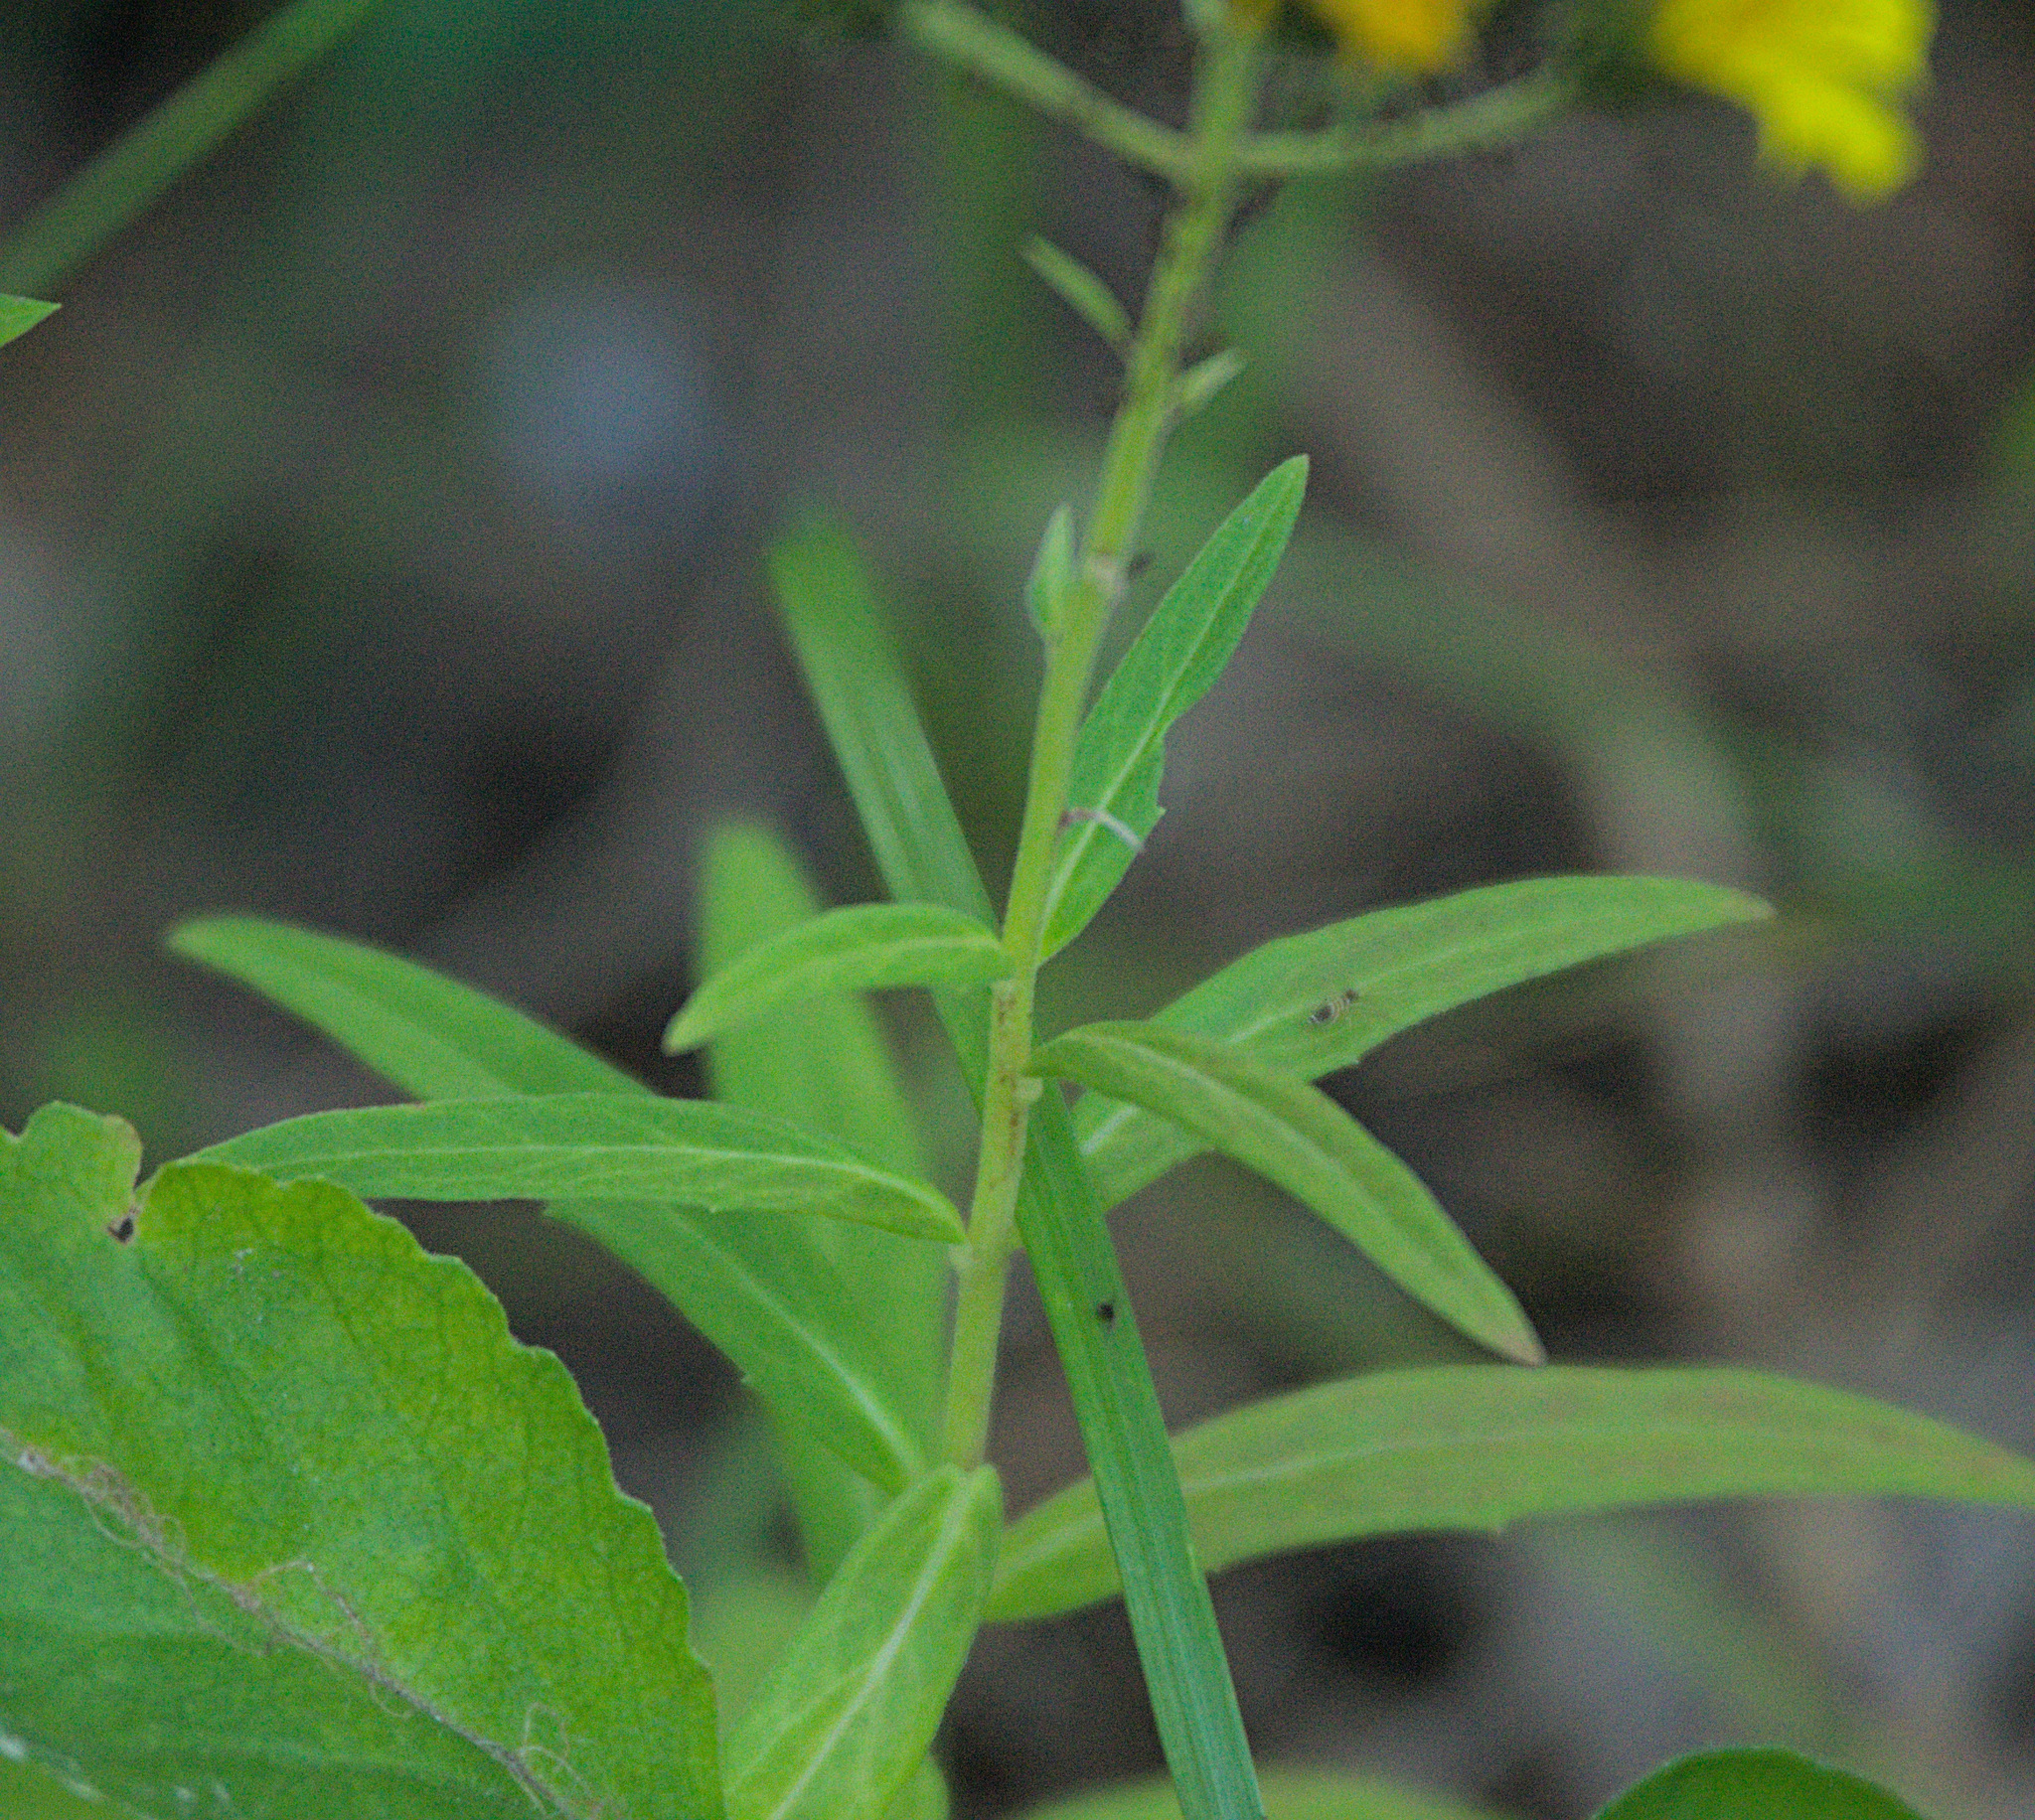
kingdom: Plantae
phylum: Tracheophyta
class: Magnoliopsida
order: Asterales
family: Asteraceae
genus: Hieracium
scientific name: Hieracium umbellatum
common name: Northern hawkweed
